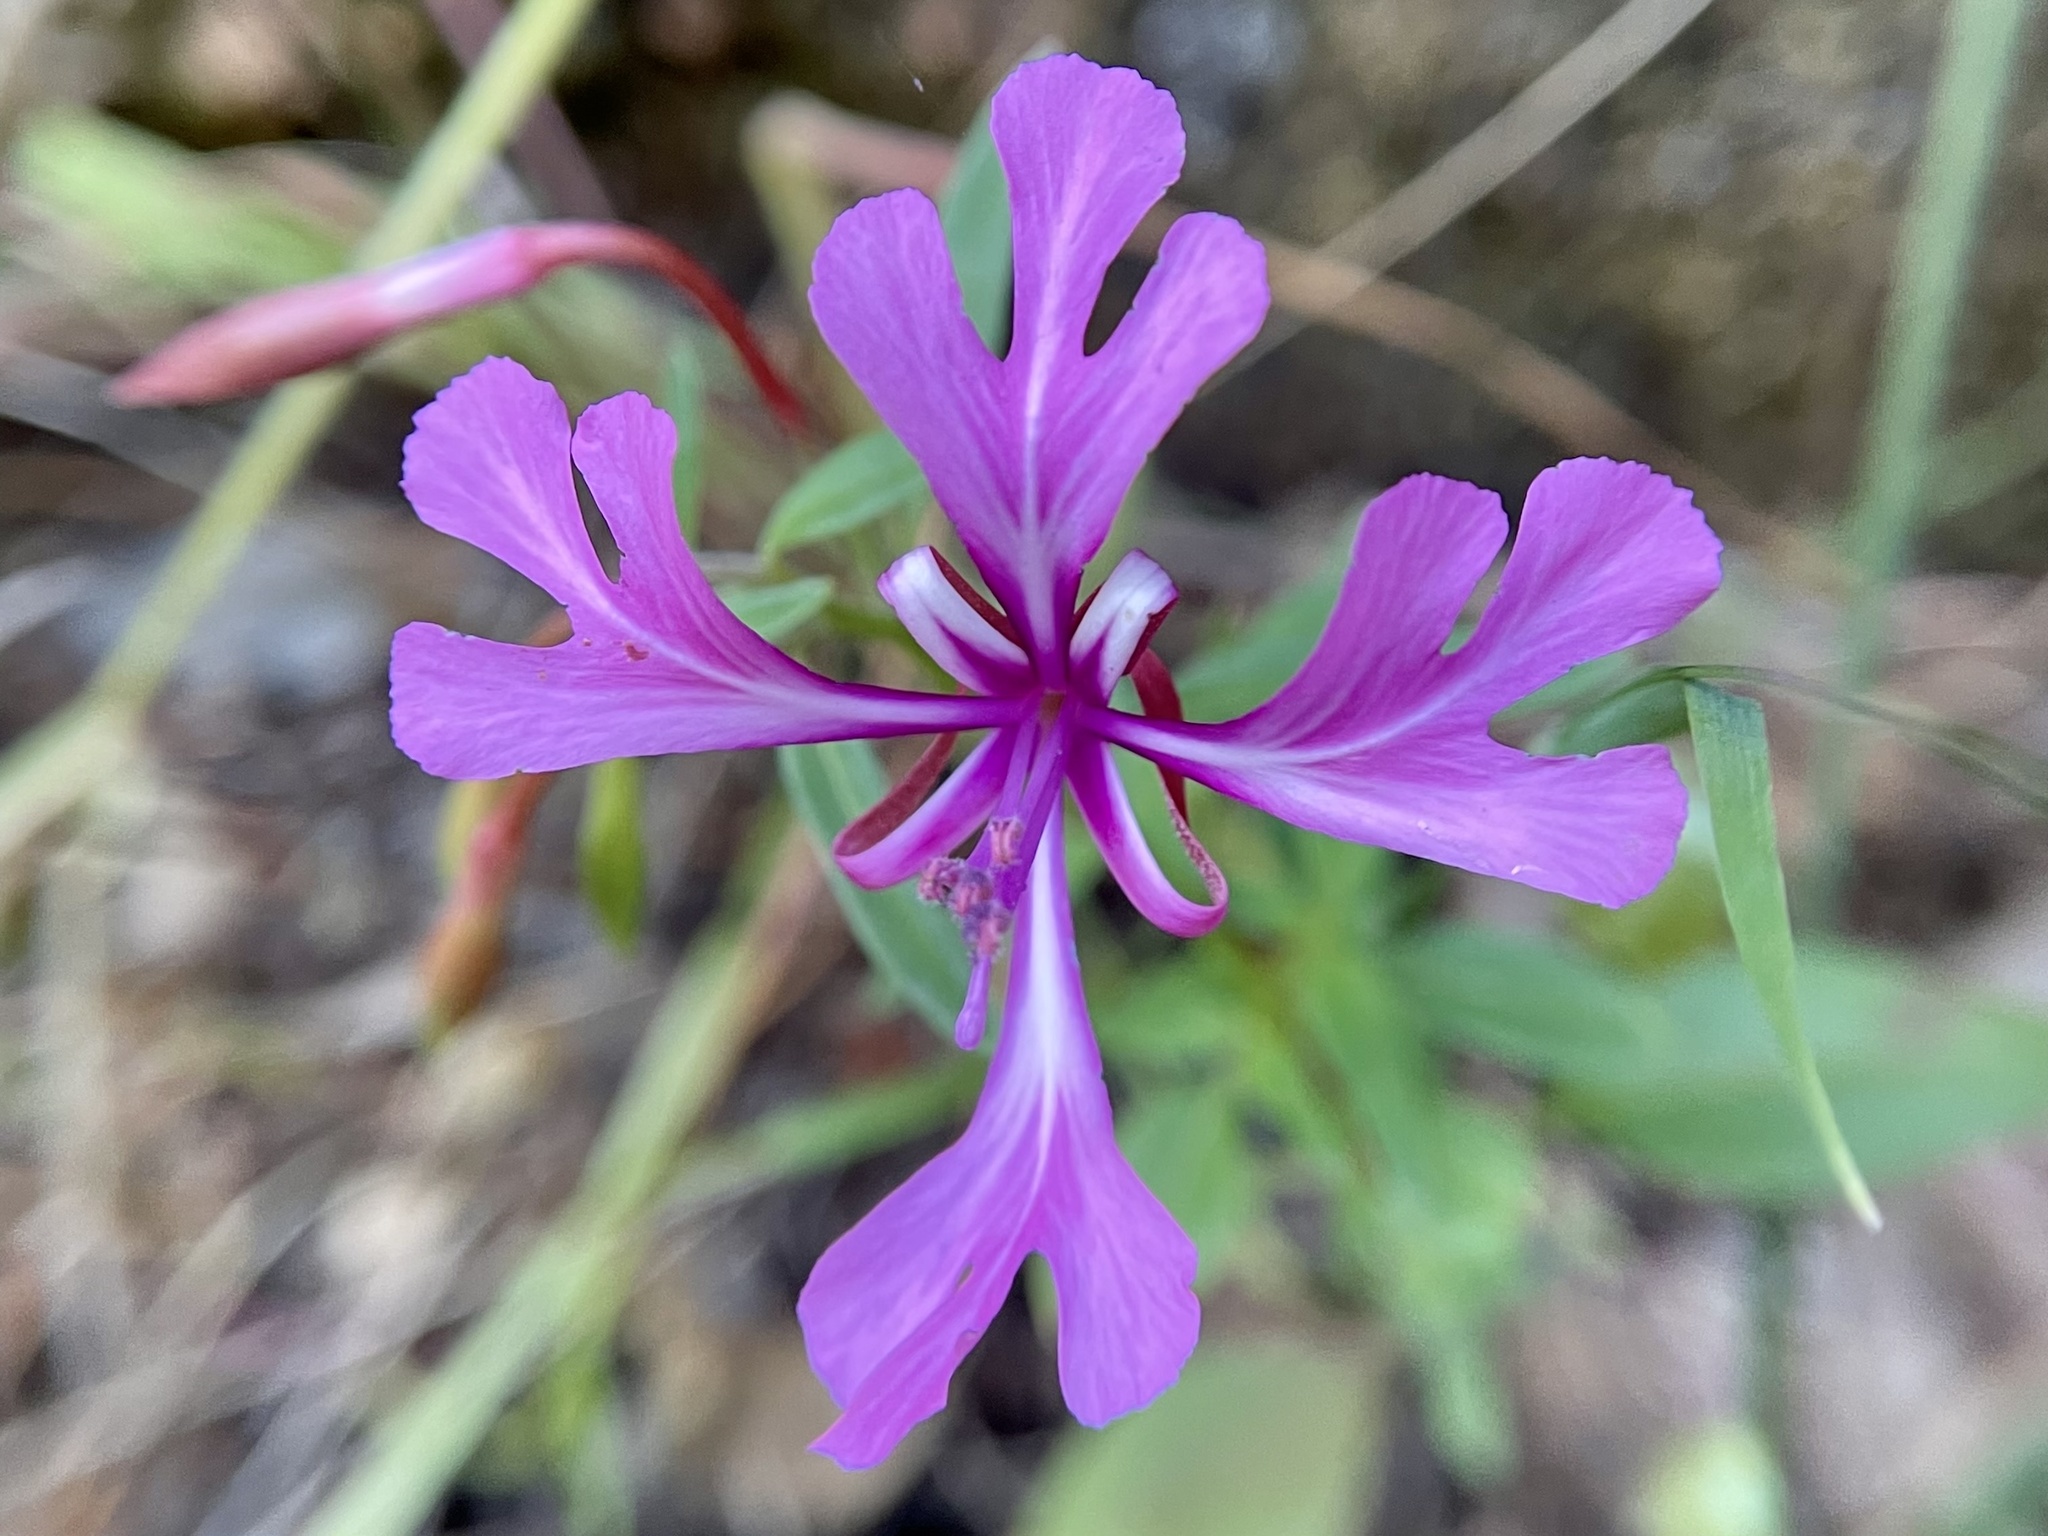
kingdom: Plantae
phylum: Tracheophyta
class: Magnoliopsida
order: Myrtales
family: Onagraceae
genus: Clarkia
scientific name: Clarkia concinna
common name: Red-ribbons
